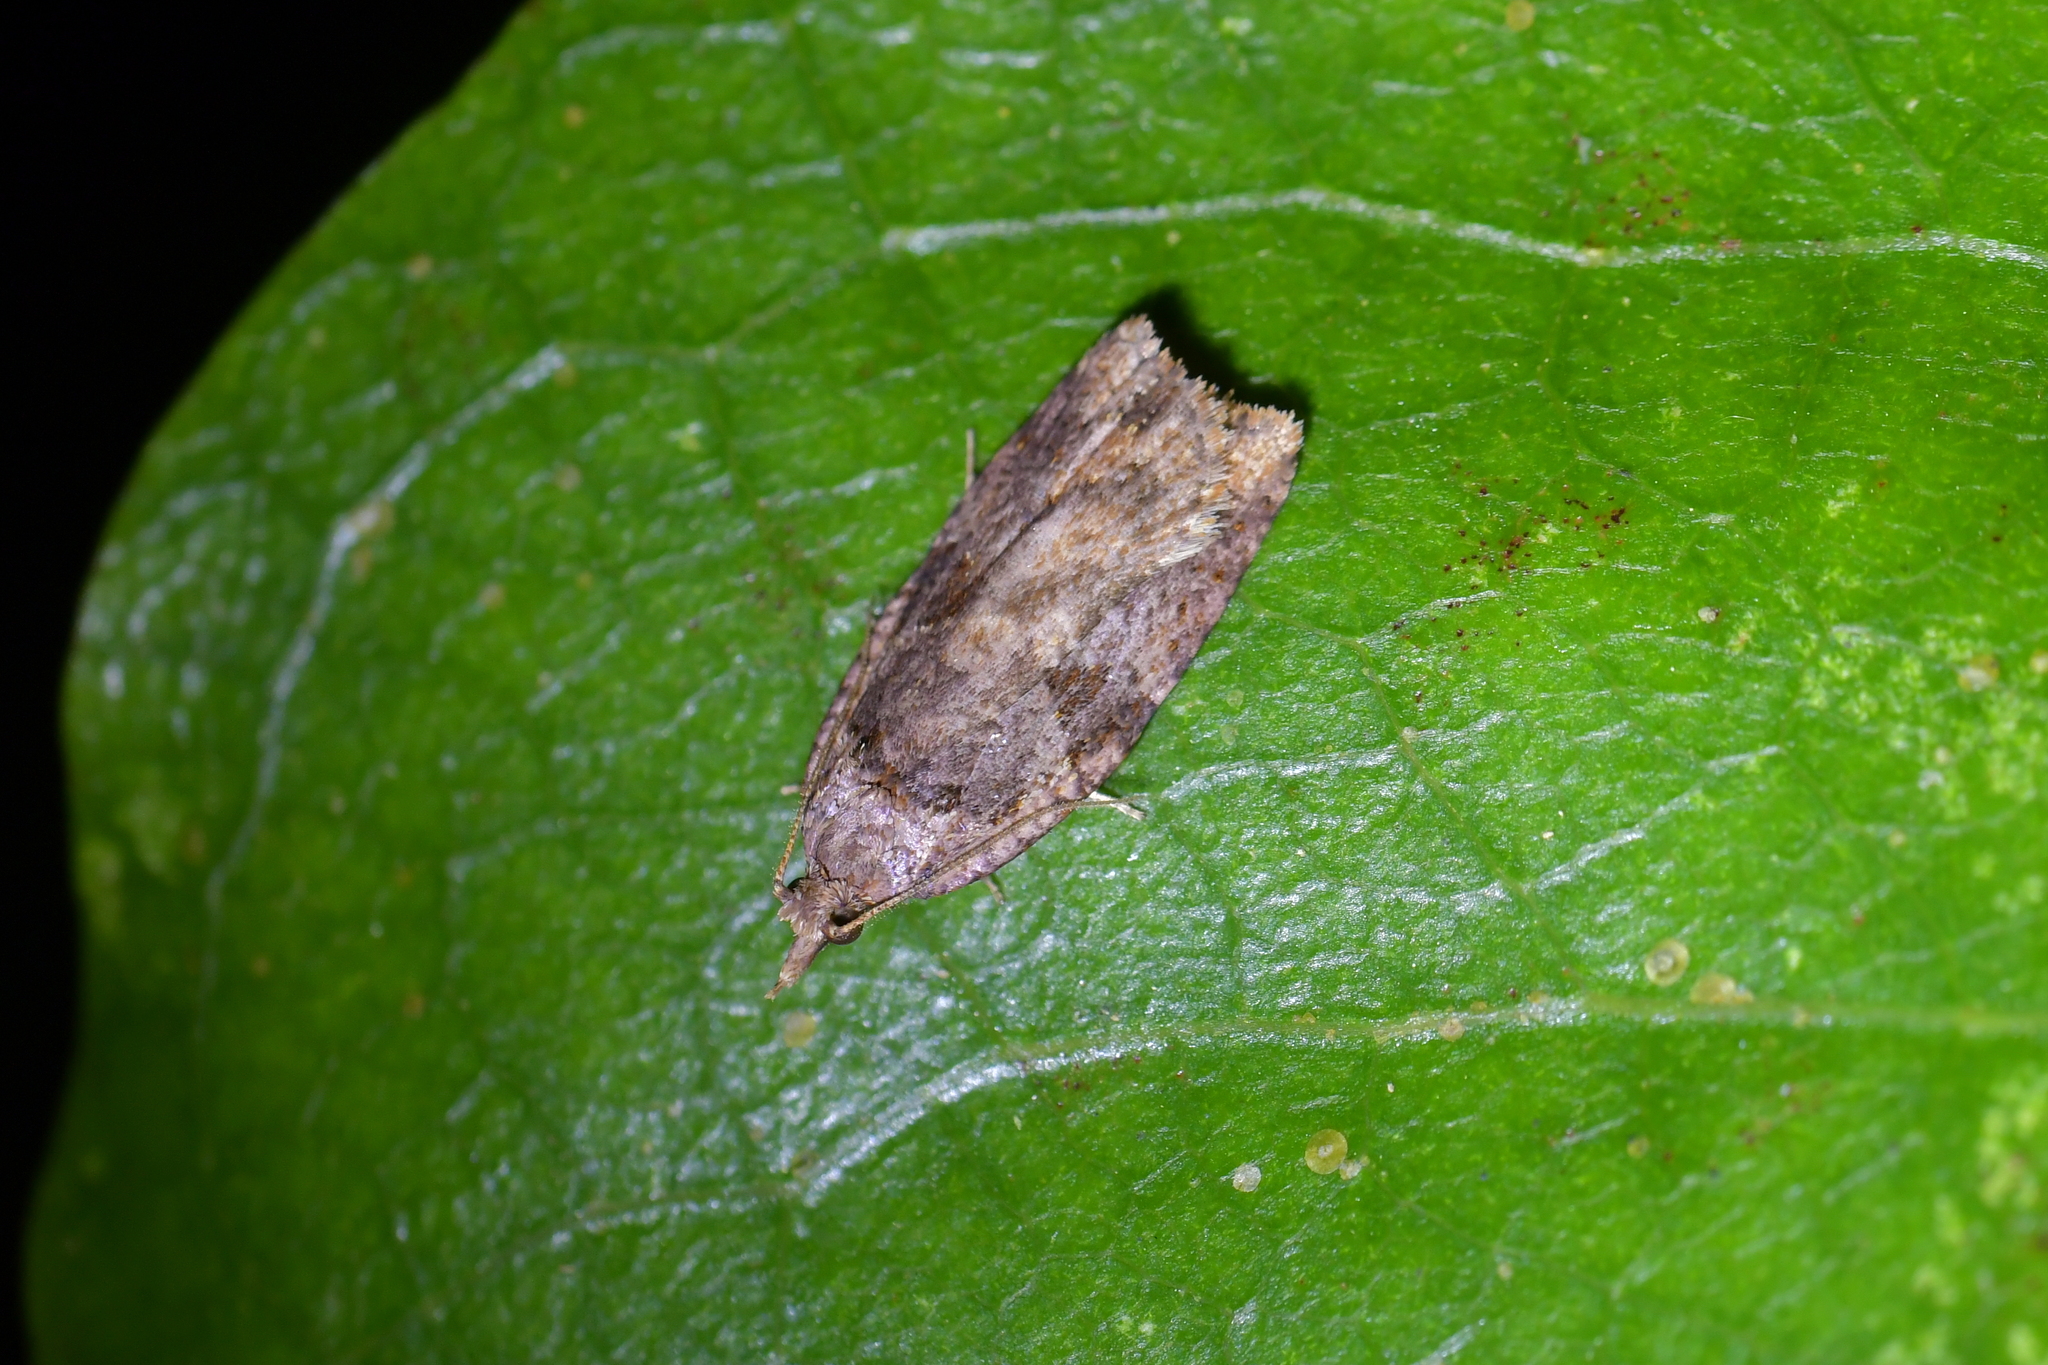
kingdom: Animalia
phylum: Arthropoda
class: Insecta
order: Lepidoptera
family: Tortricidae
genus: Ctenopseustis
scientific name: Ctenopseustis obliquana
